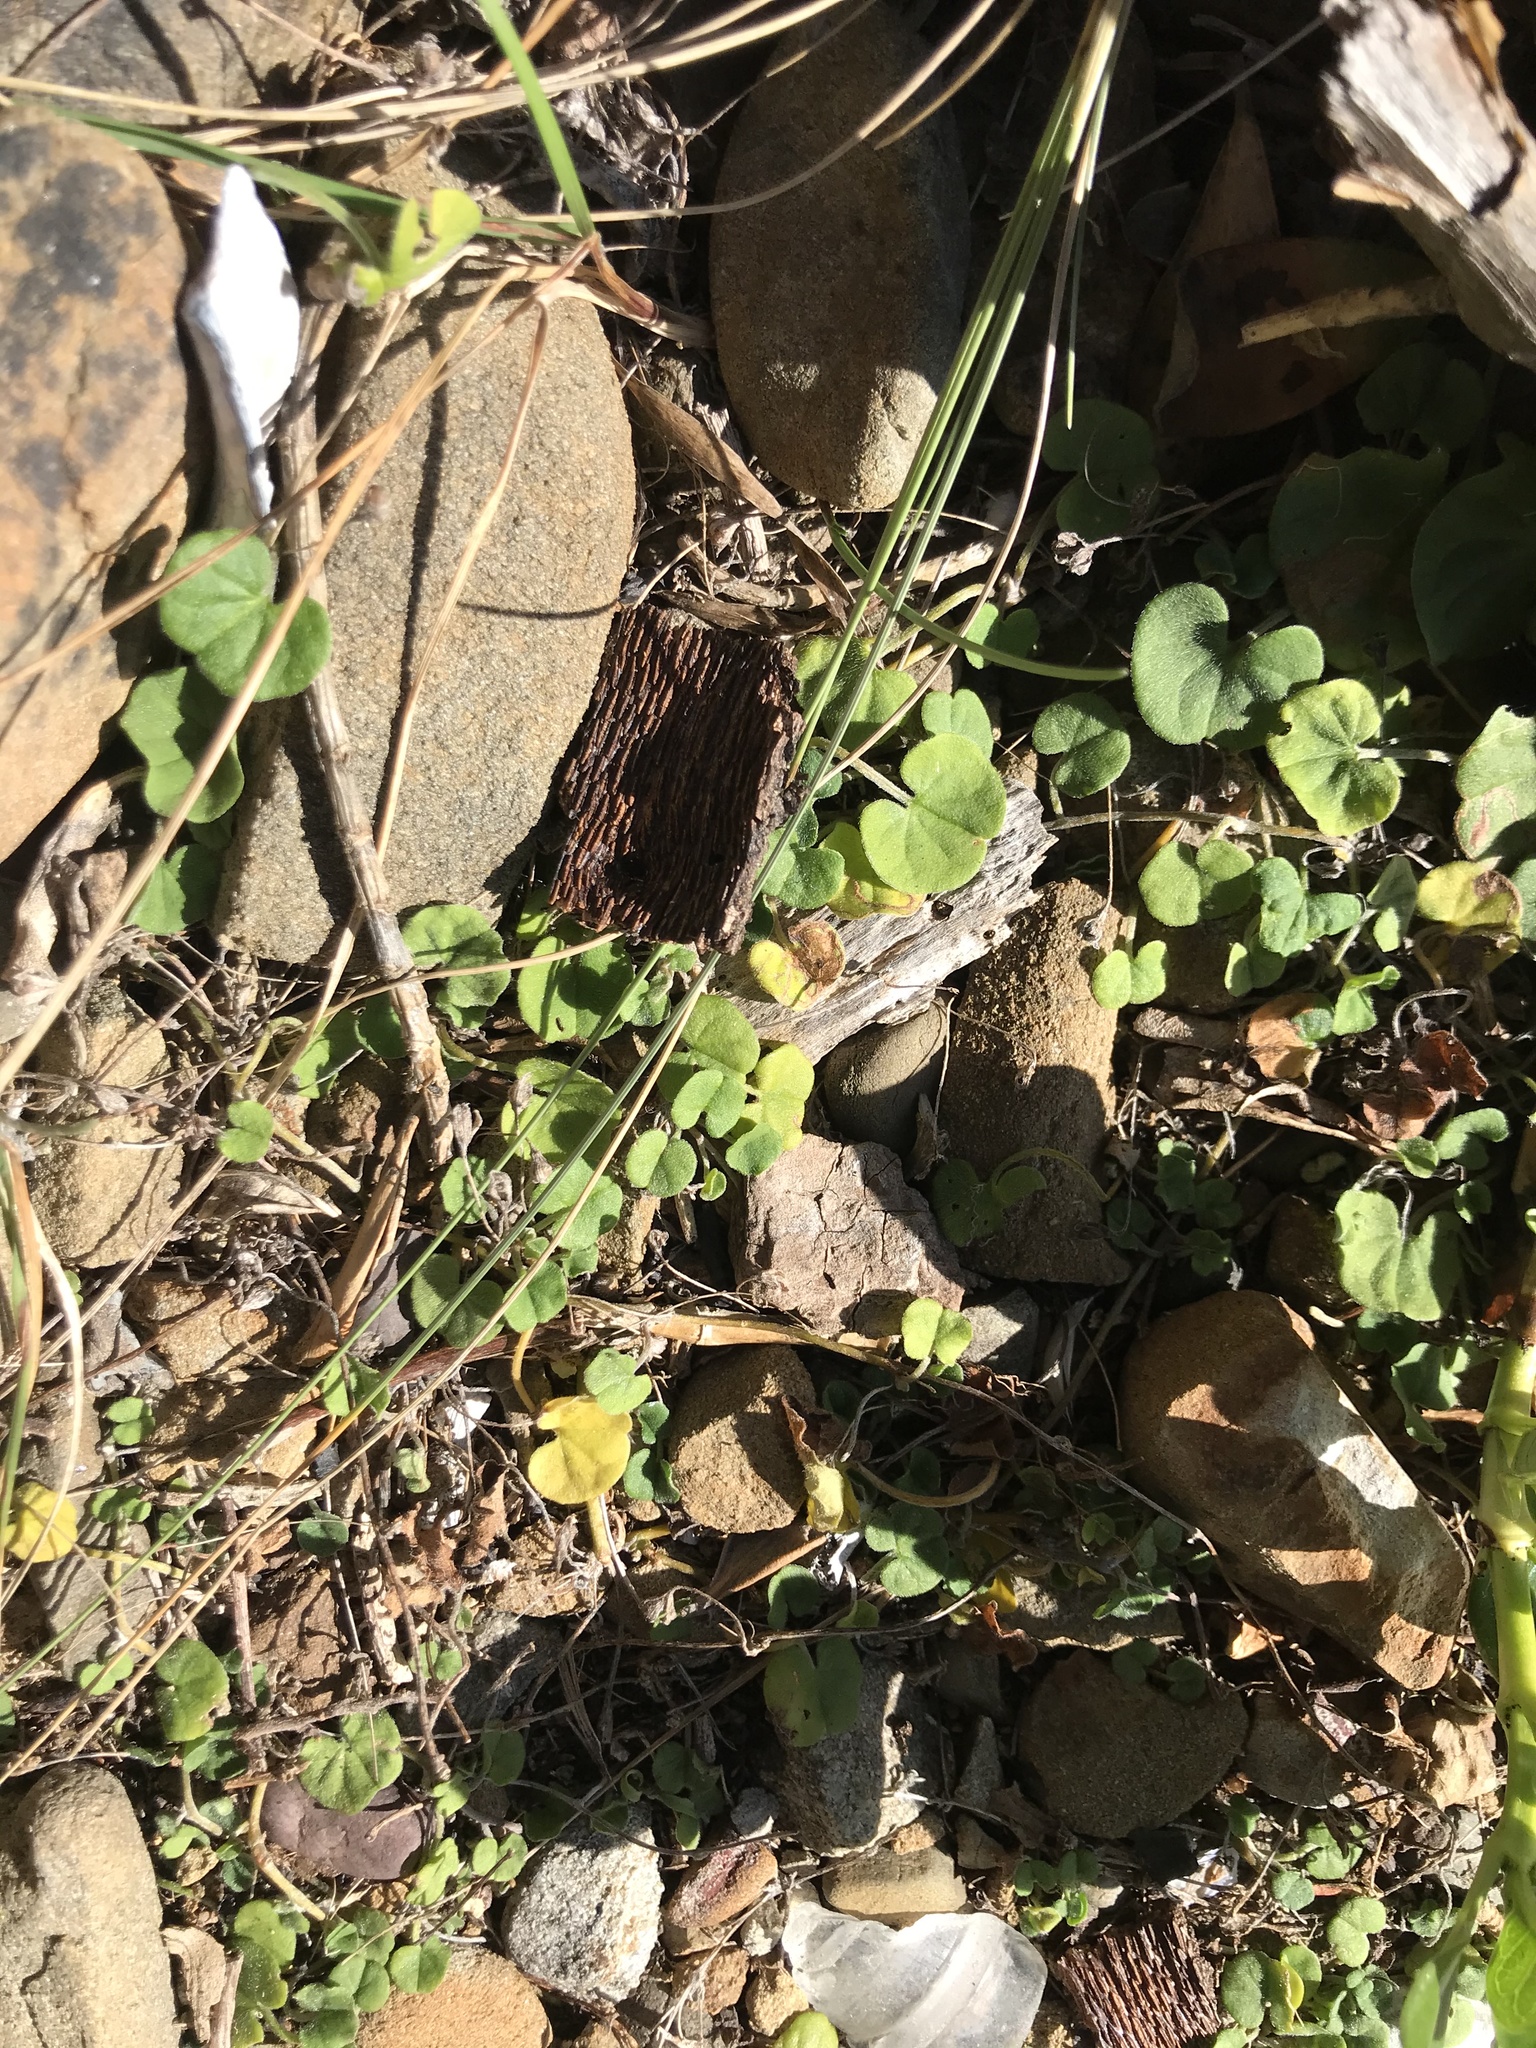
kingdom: Plantae
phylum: Tracheophyta
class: Magnoliopsida
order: Solanales
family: Convolvulaceae
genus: Dichondra
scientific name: Dichondra repens
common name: Kidneyweed
